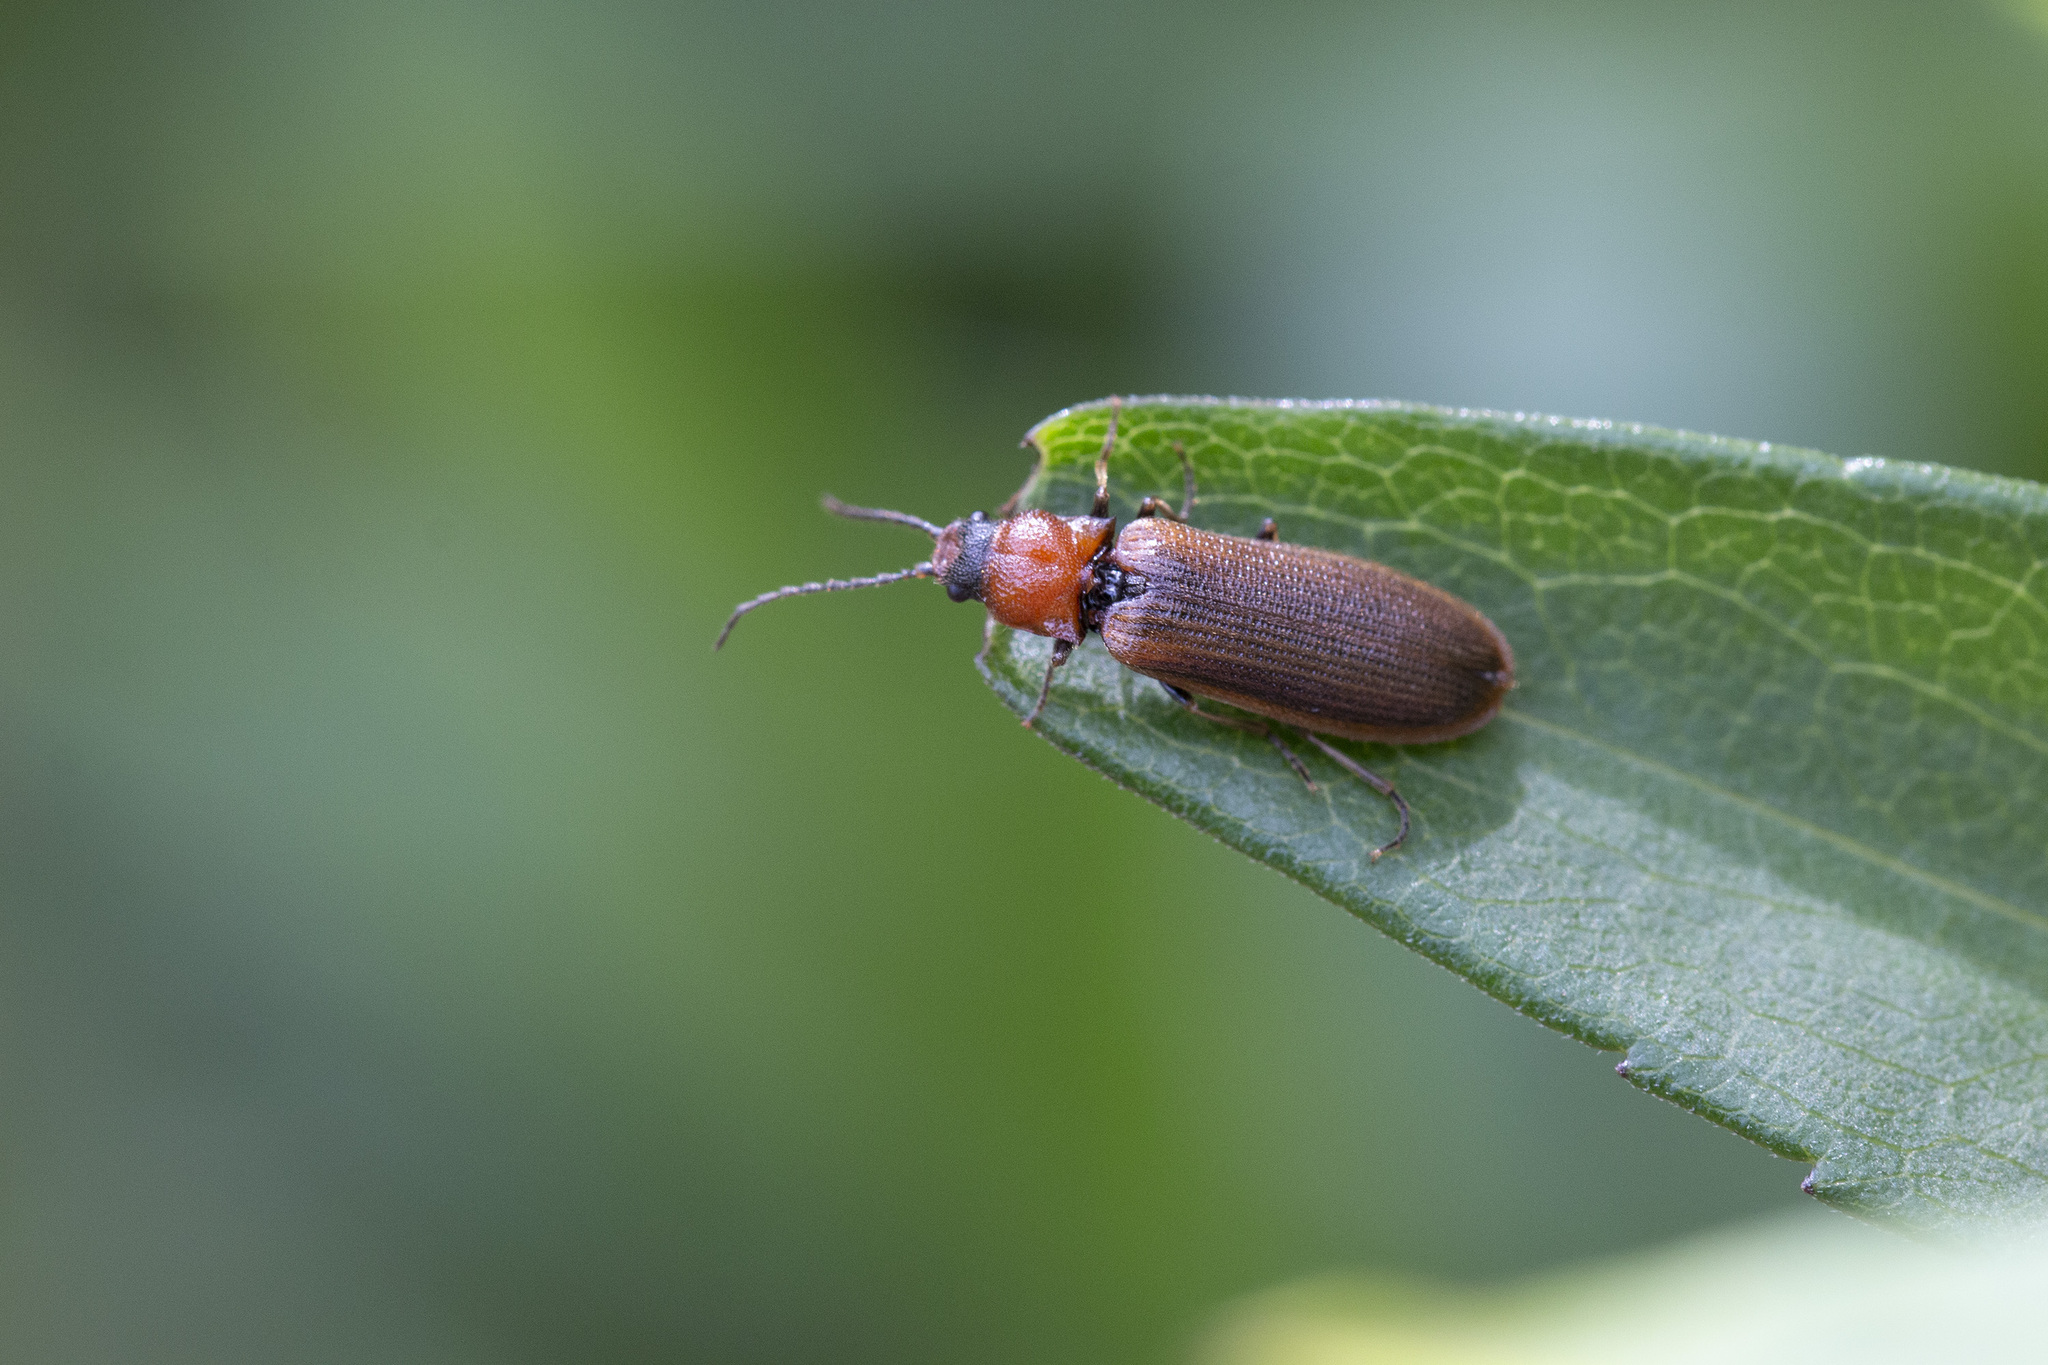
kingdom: Animalia
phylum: Arthropoda
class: Insecta
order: Coleoptera
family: Elateridae
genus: Denticollis
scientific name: Denticollis linearis
